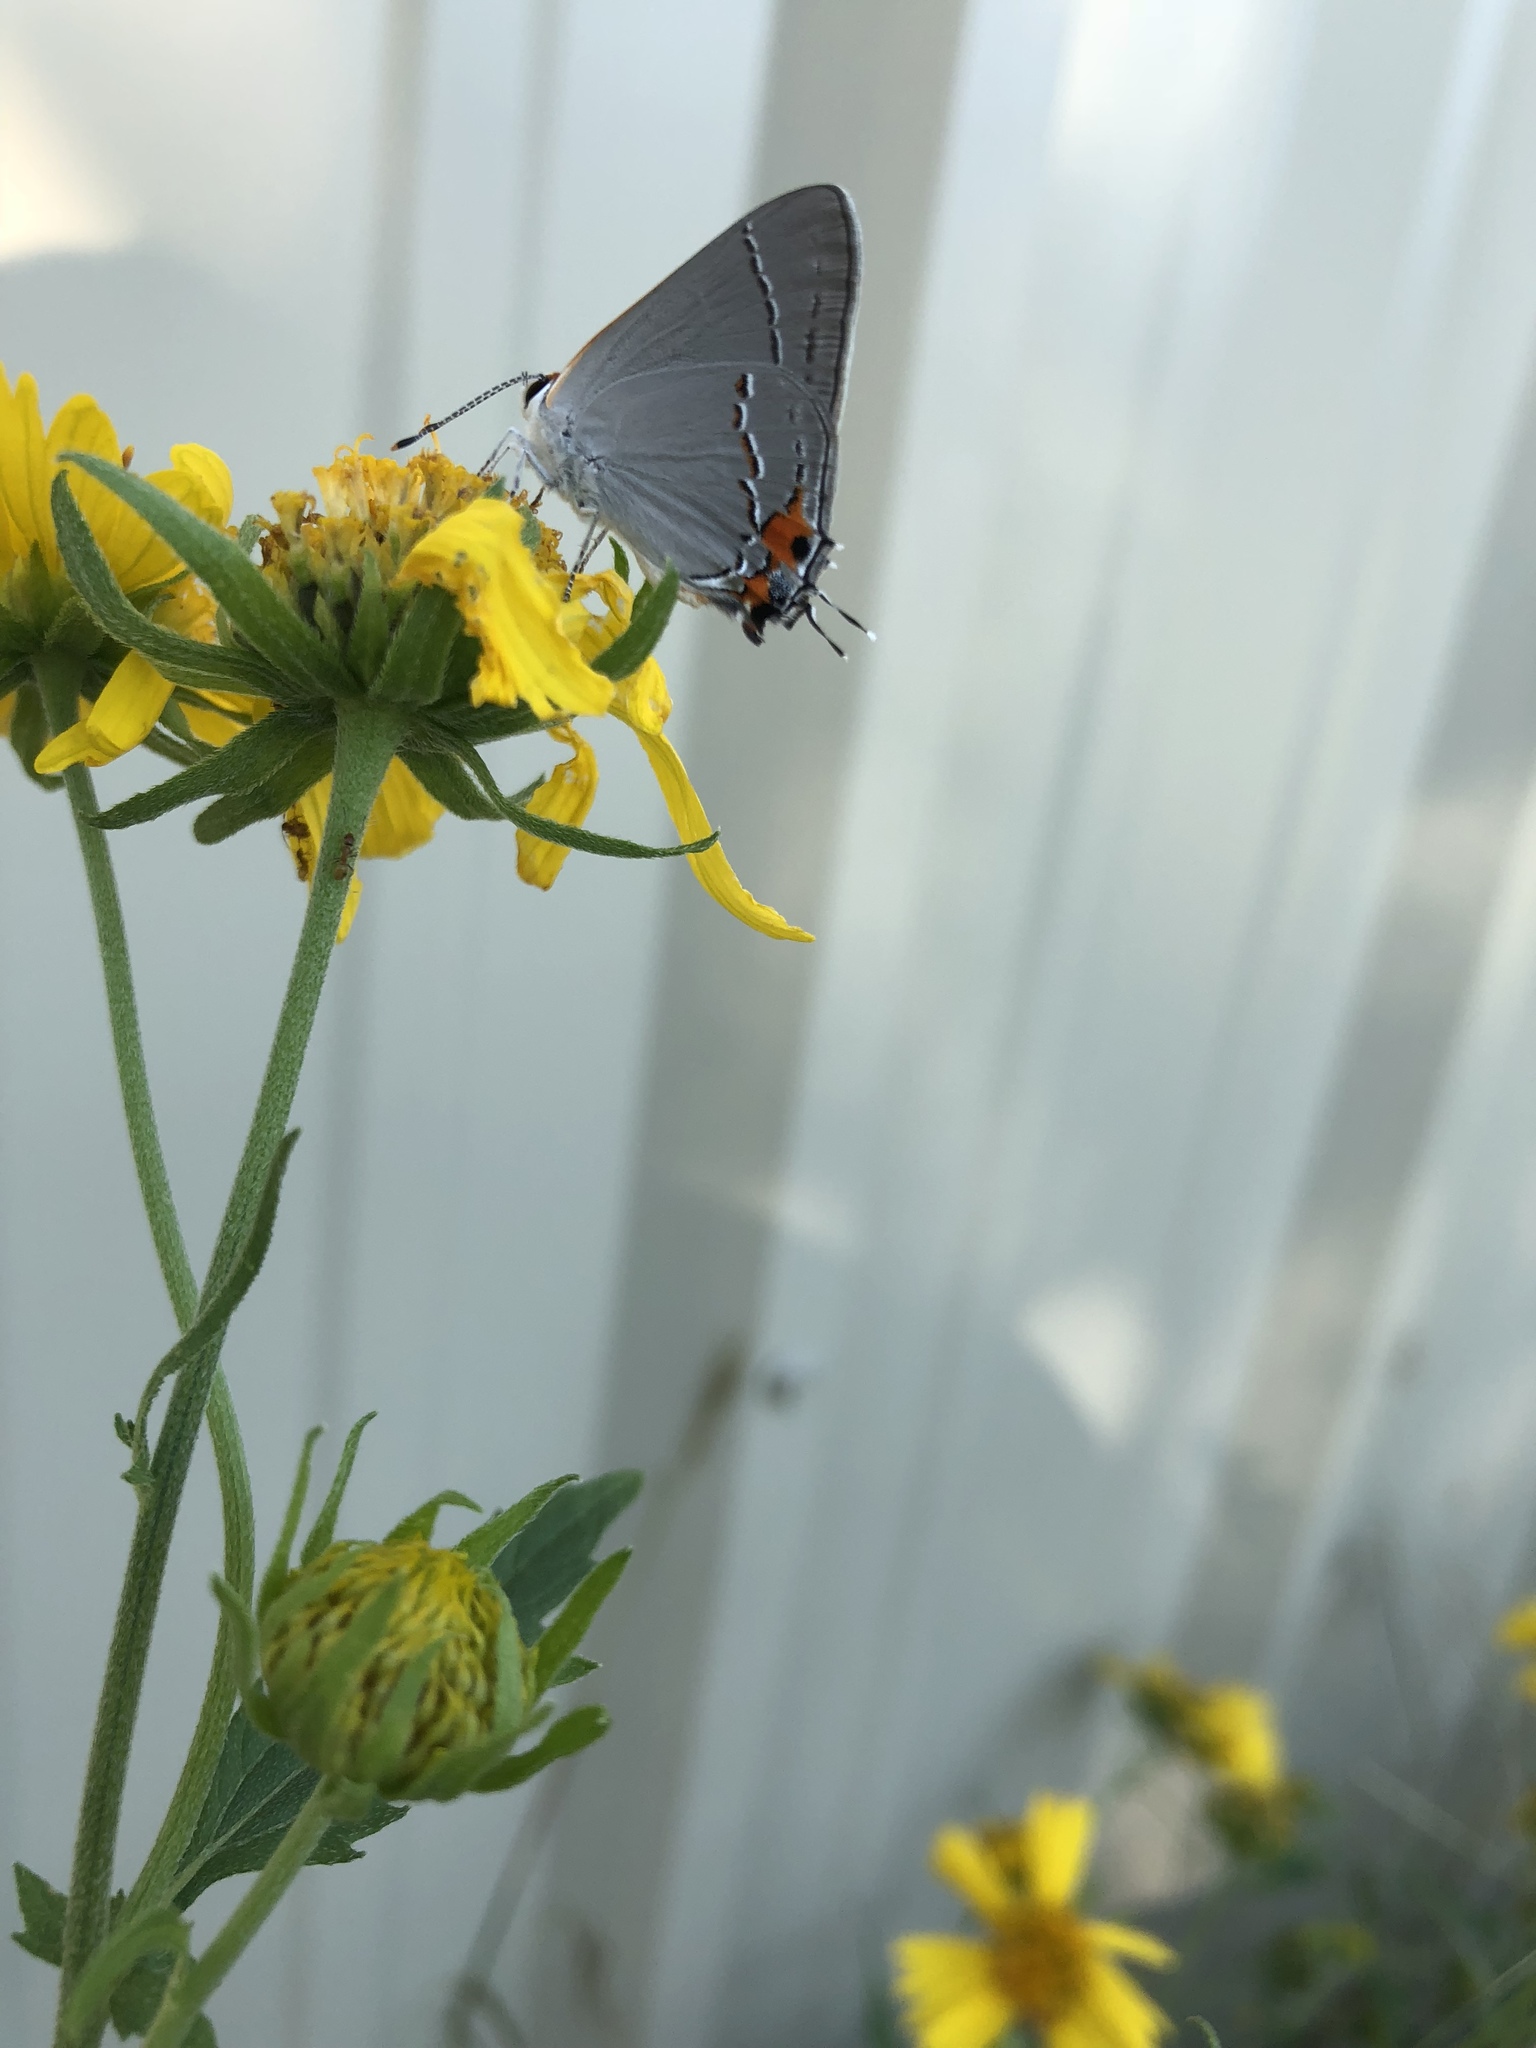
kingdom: Animalia
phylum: Arthropoda
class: Insecta
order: Lepidoptera
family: Lycaenidae
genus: Strymon
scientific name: Strymon melinus
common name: Gray hairstreak
